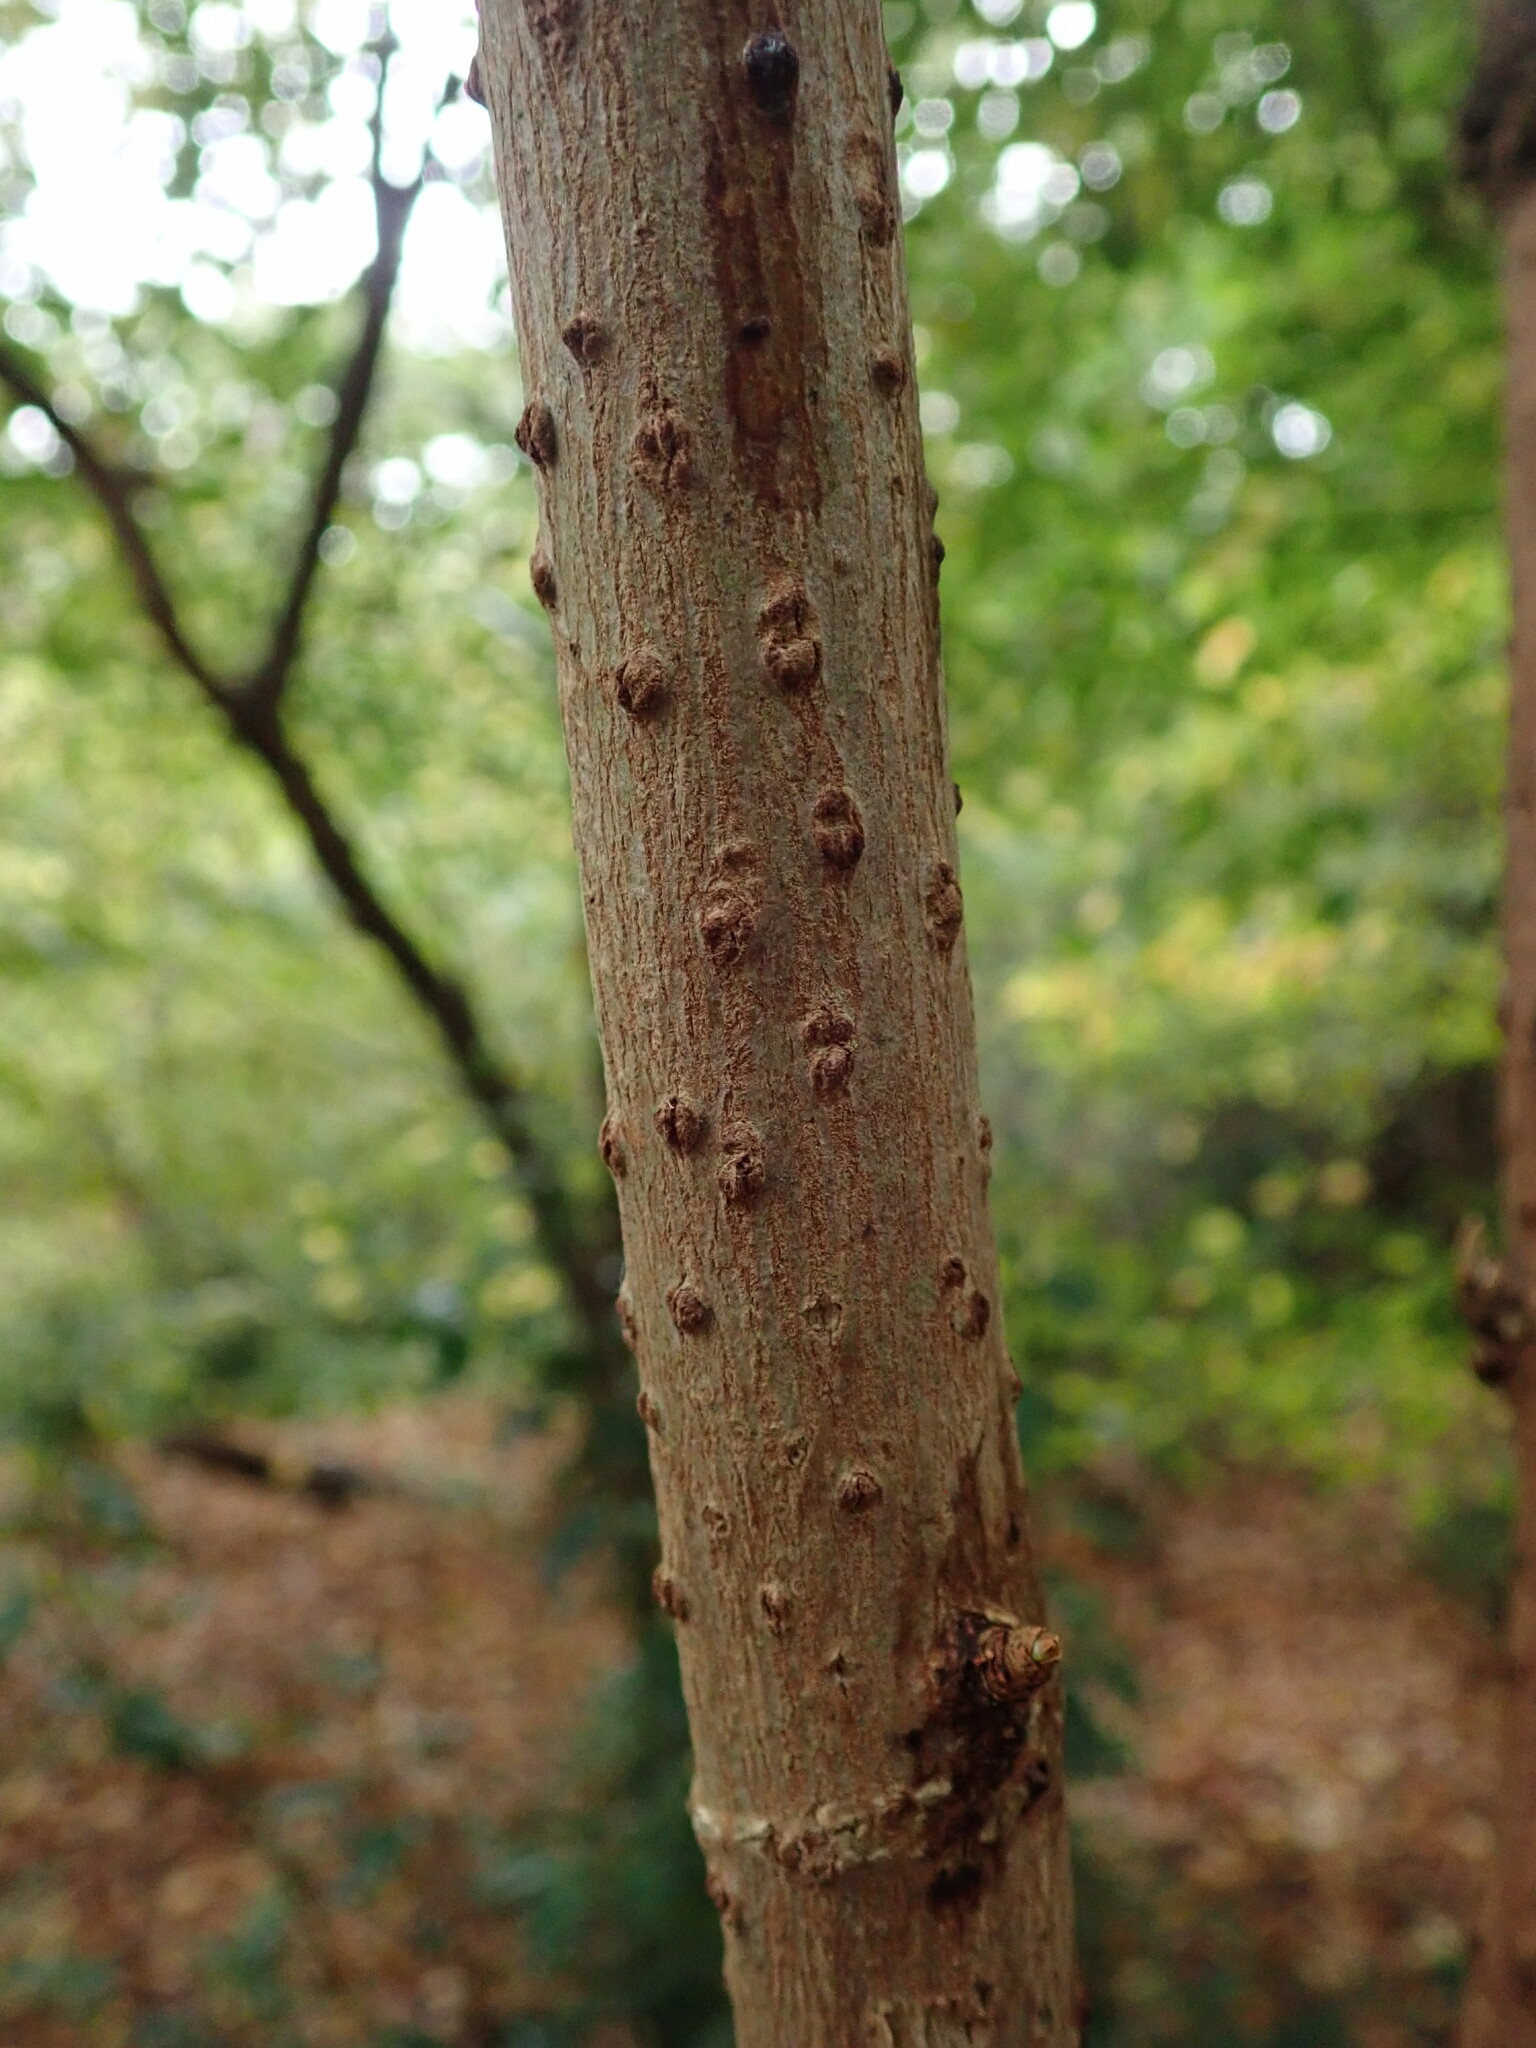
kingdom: Plantae
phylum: Tracheophyta
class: Magnoliopsida
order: Dipsacales
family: Viburnaceae
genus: Sambucus
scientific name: Sambucus nigra
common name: Elder
